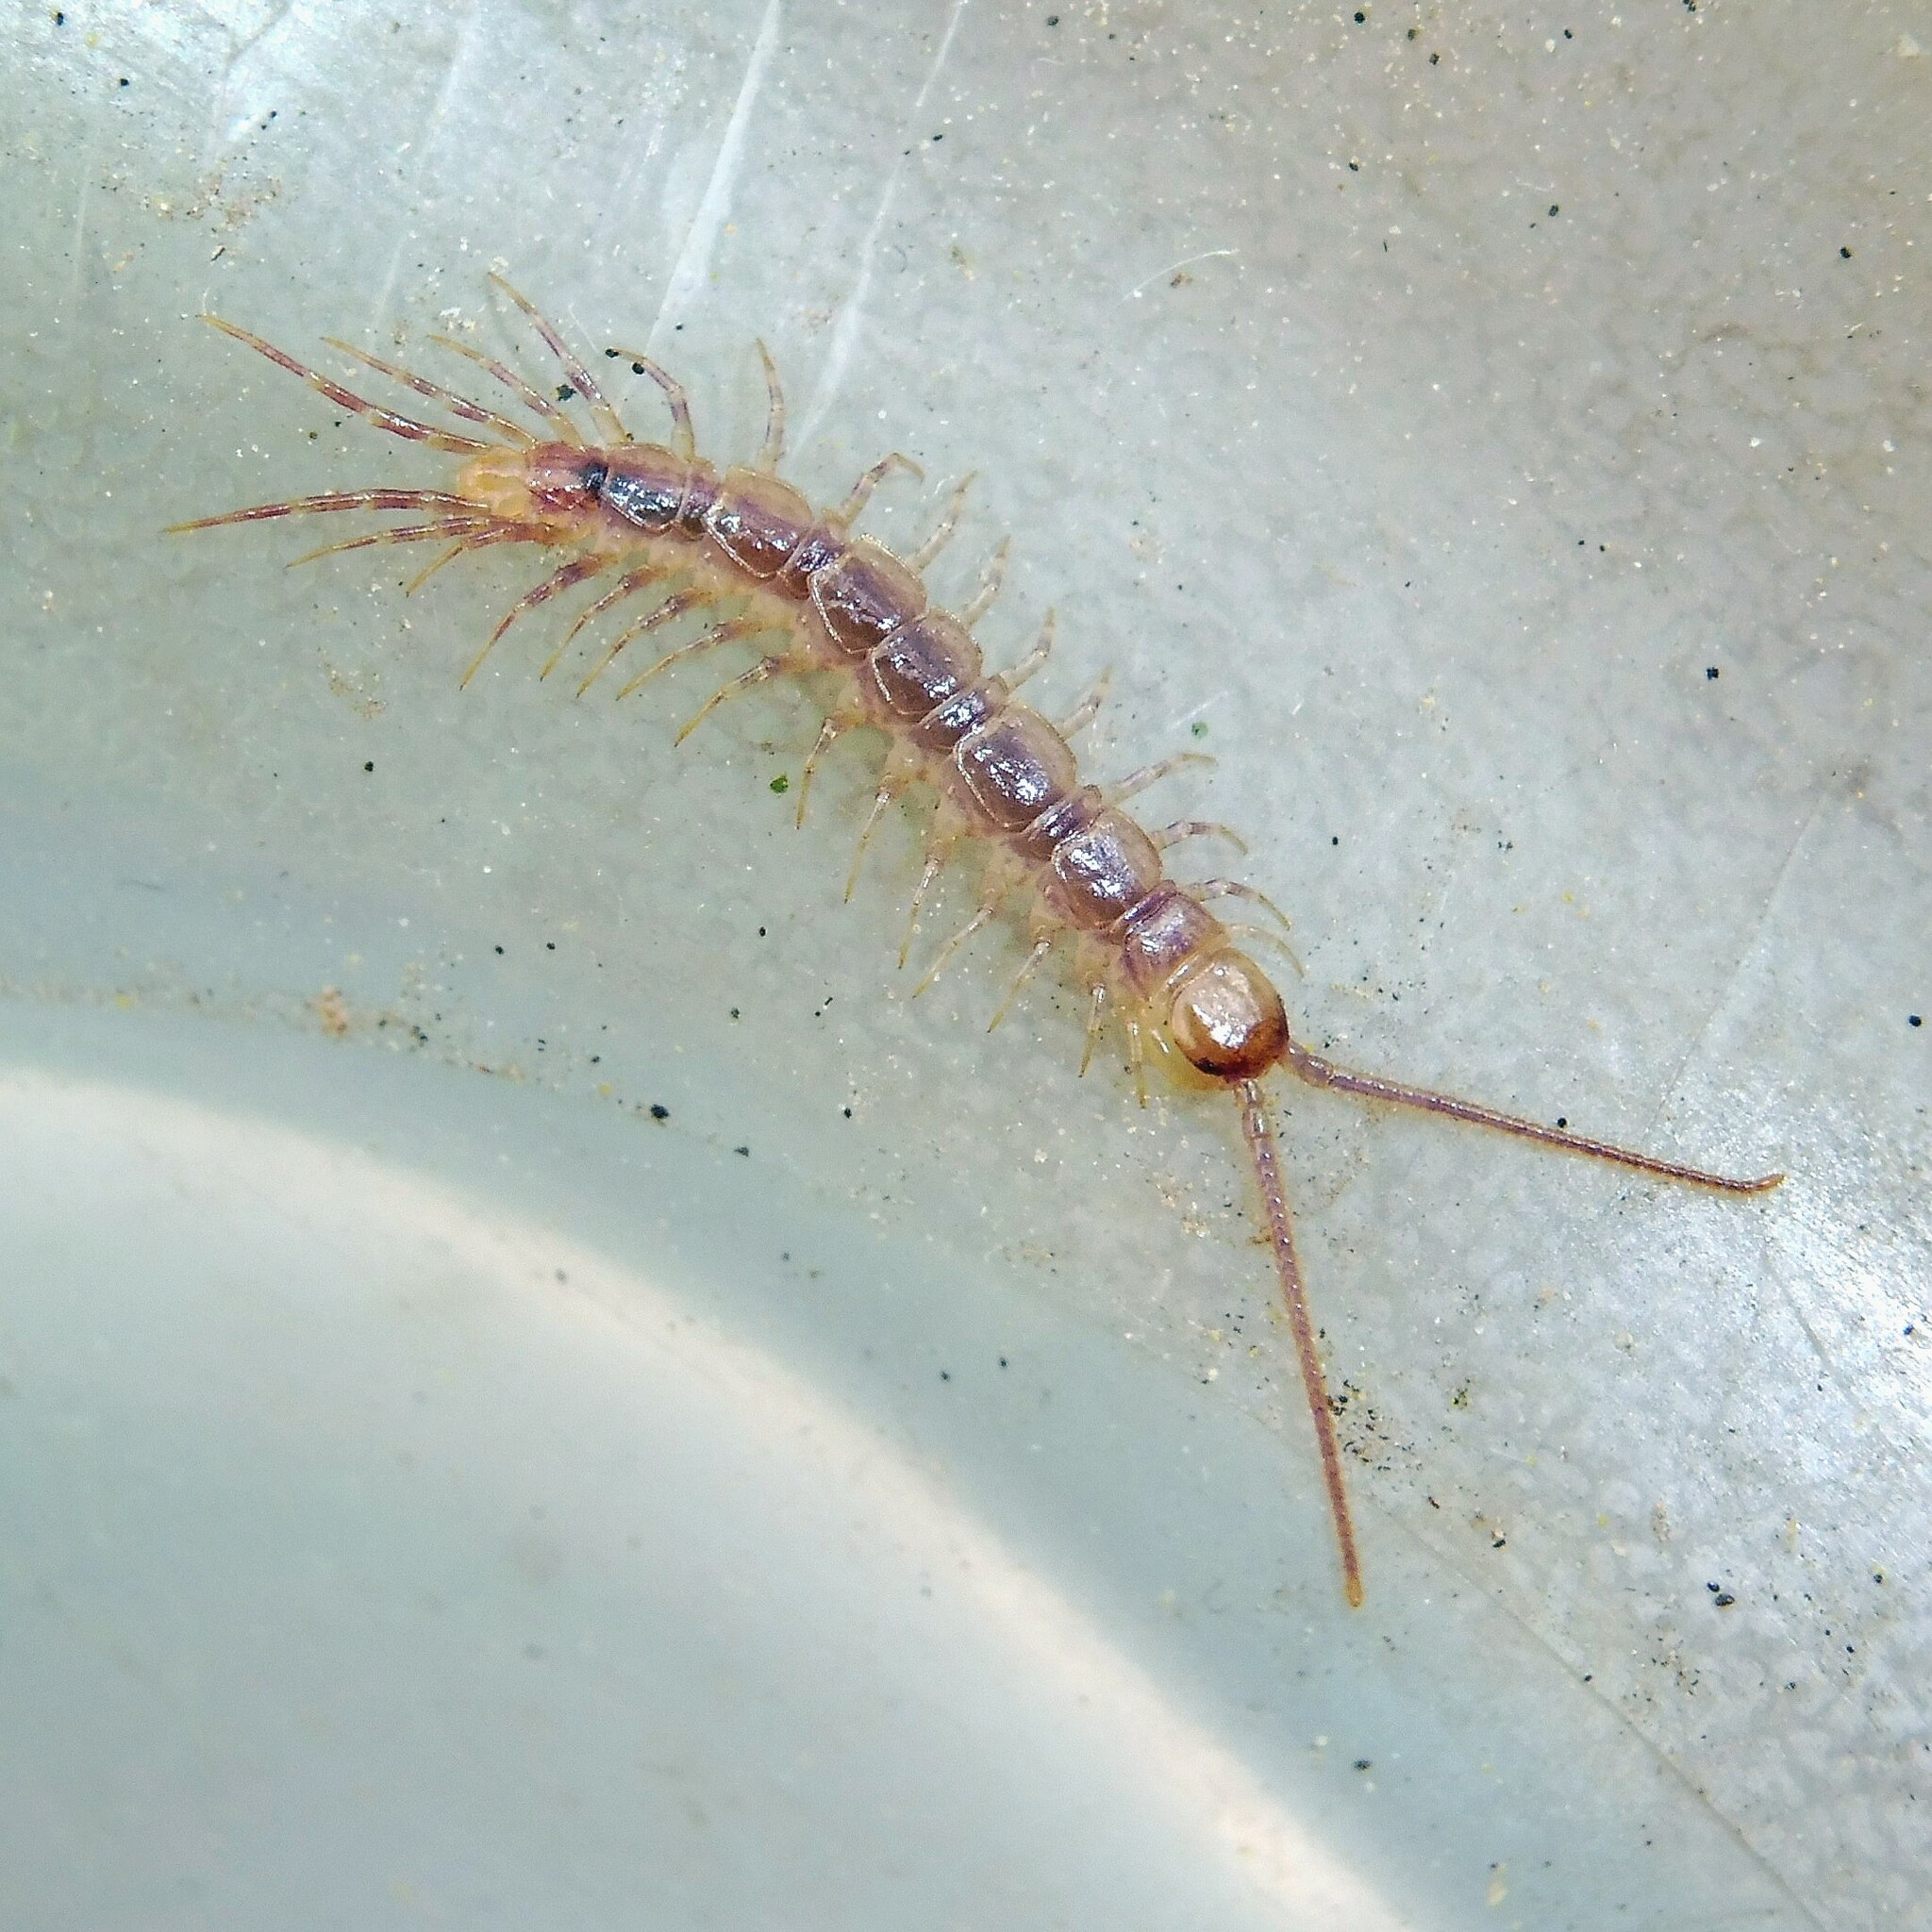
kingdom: Animalia
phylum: Arthropoda
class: Chilopoda
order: Lithobiomorpha
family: Lithobiidae
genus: Lithobius
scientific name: Lithobius variegatus
